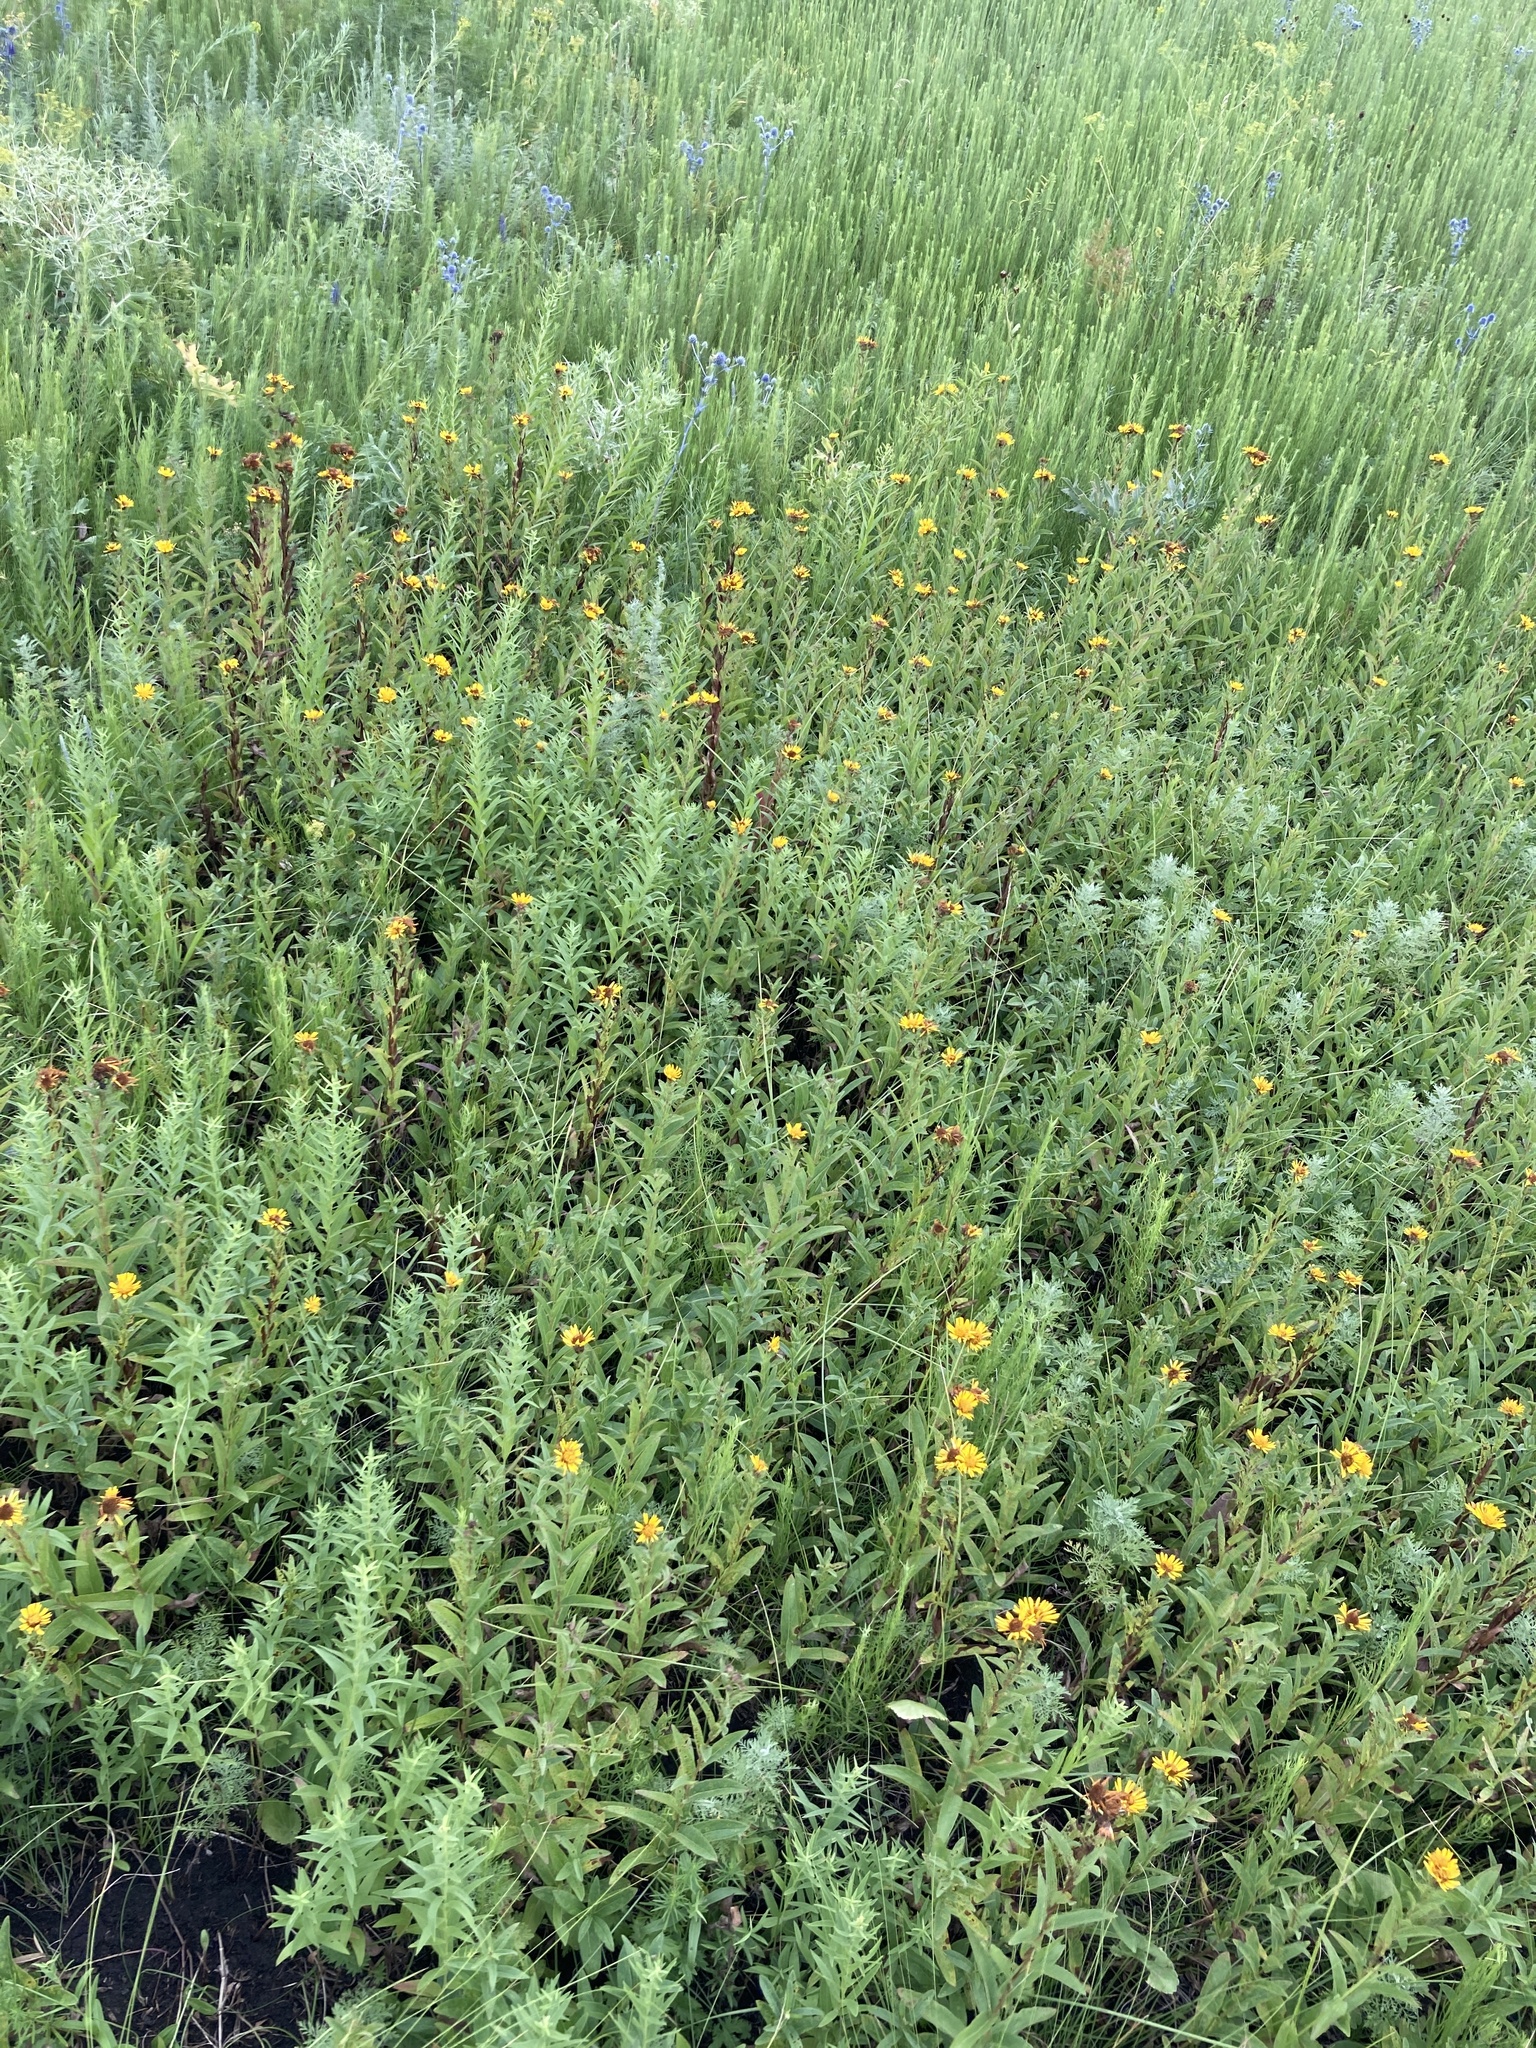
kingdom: Plantae
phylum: Tracheophyta
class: Magnoliopsida
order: Asterales
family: Asteraceae
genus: Pentanema
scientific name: Pentanema salicinum
